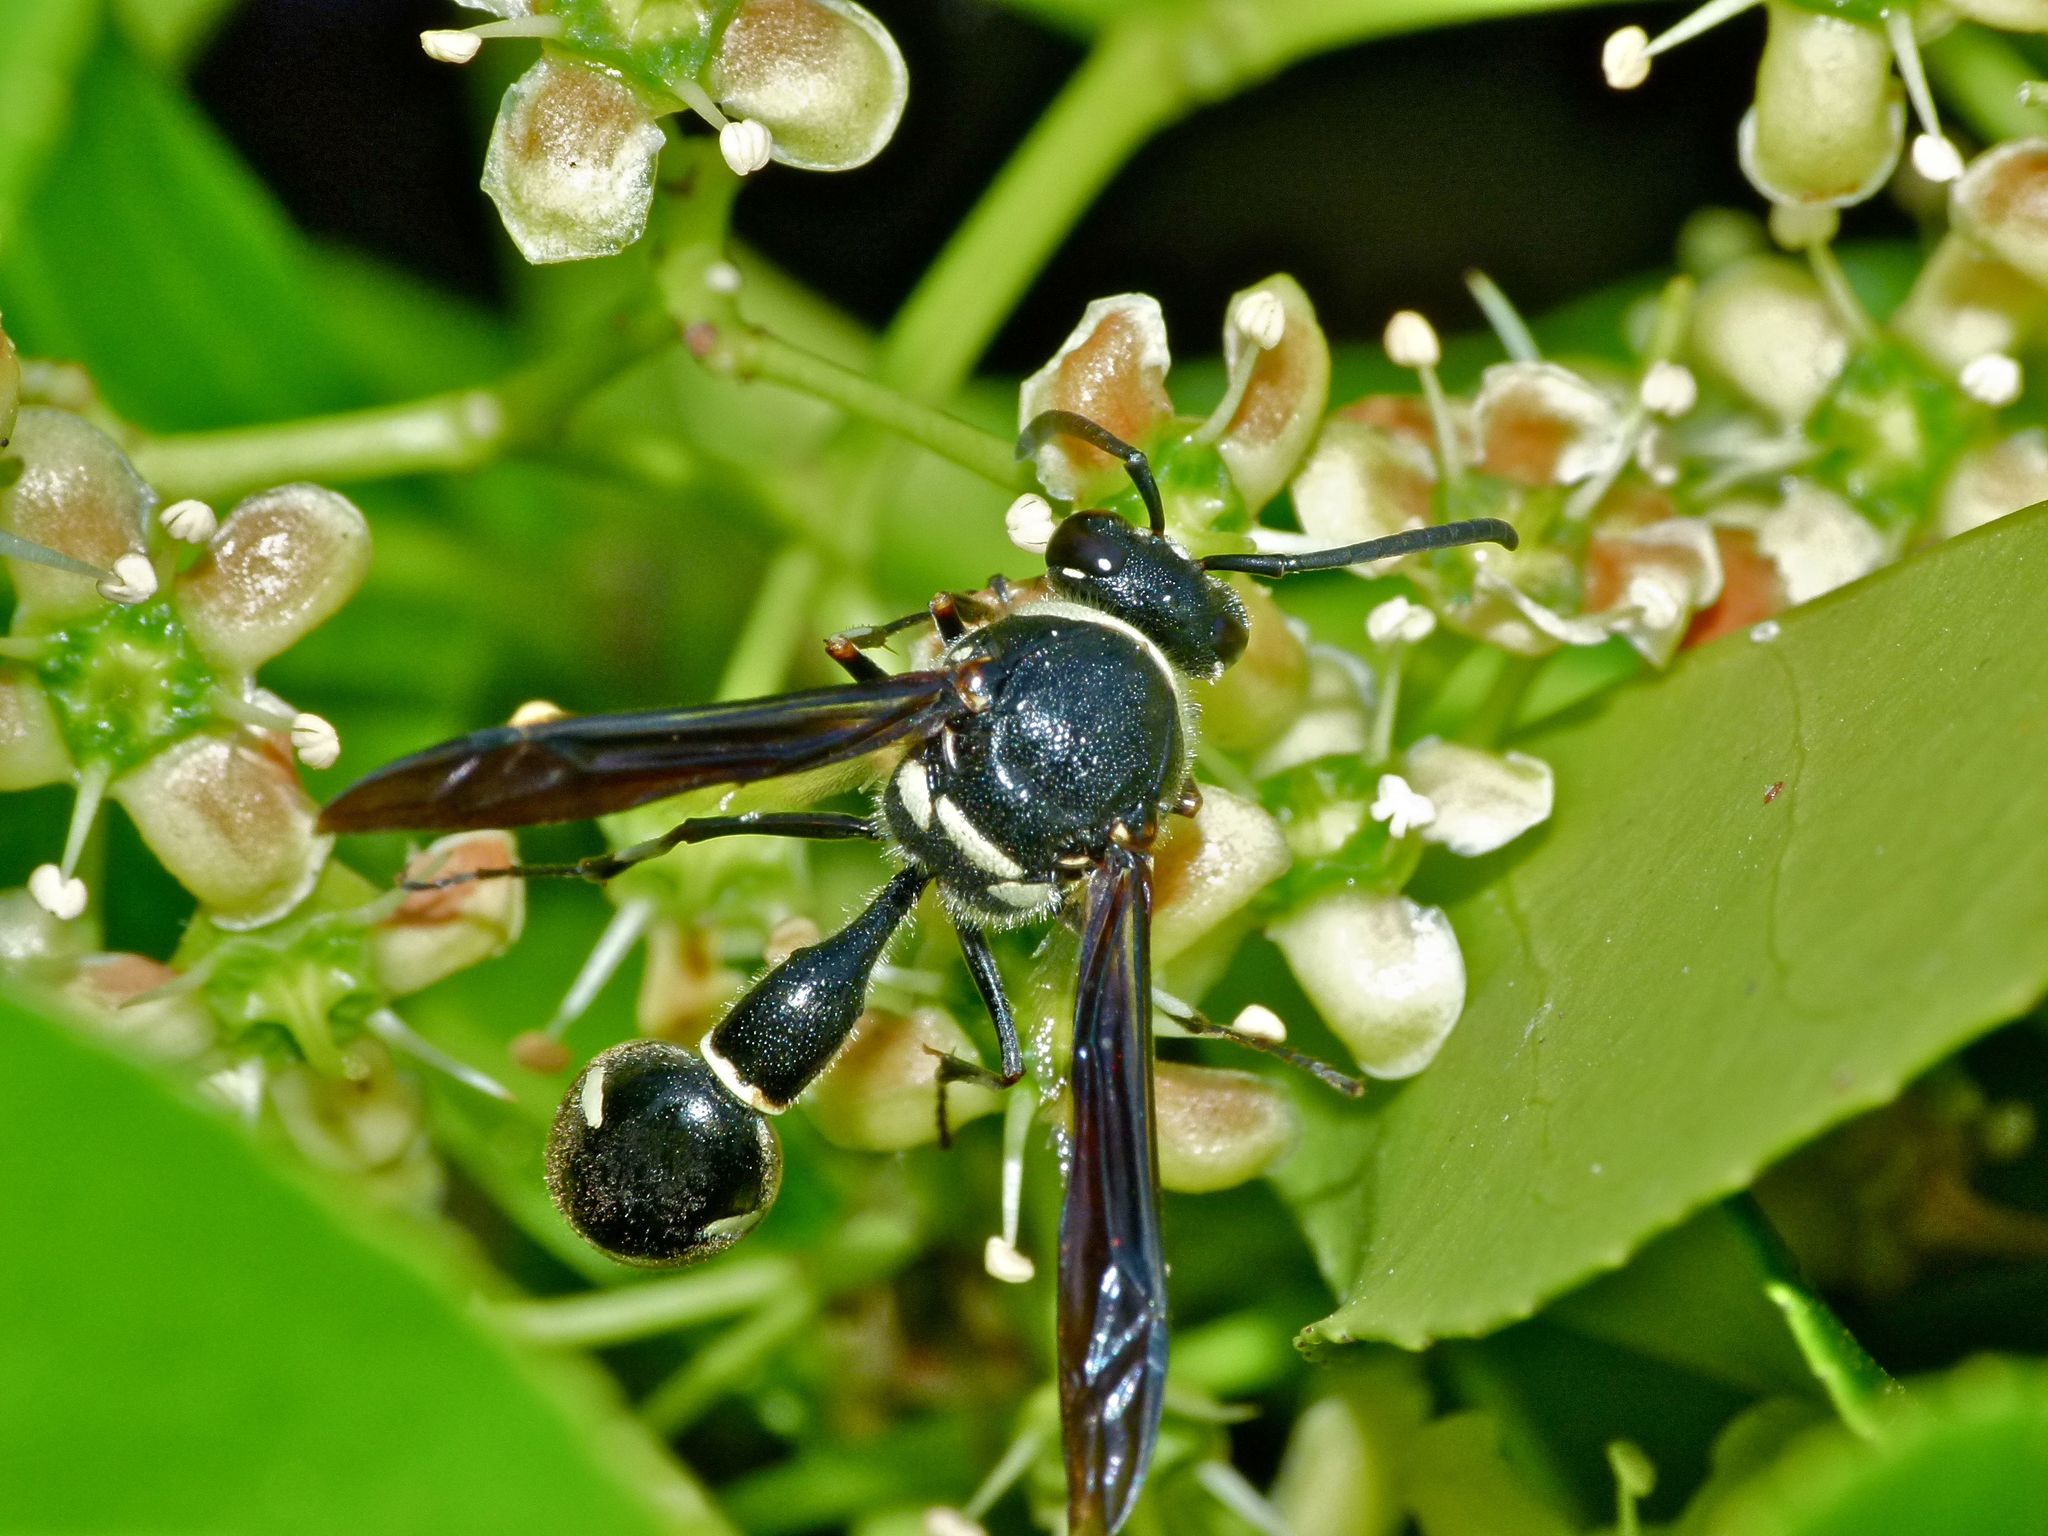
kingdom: Animalia
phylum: Arthropoda
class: Insecta
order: Hymenoptera
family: Vespidae
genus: Eumenes
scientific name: Eumenes fraternus
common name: Fraternal potter wasp
